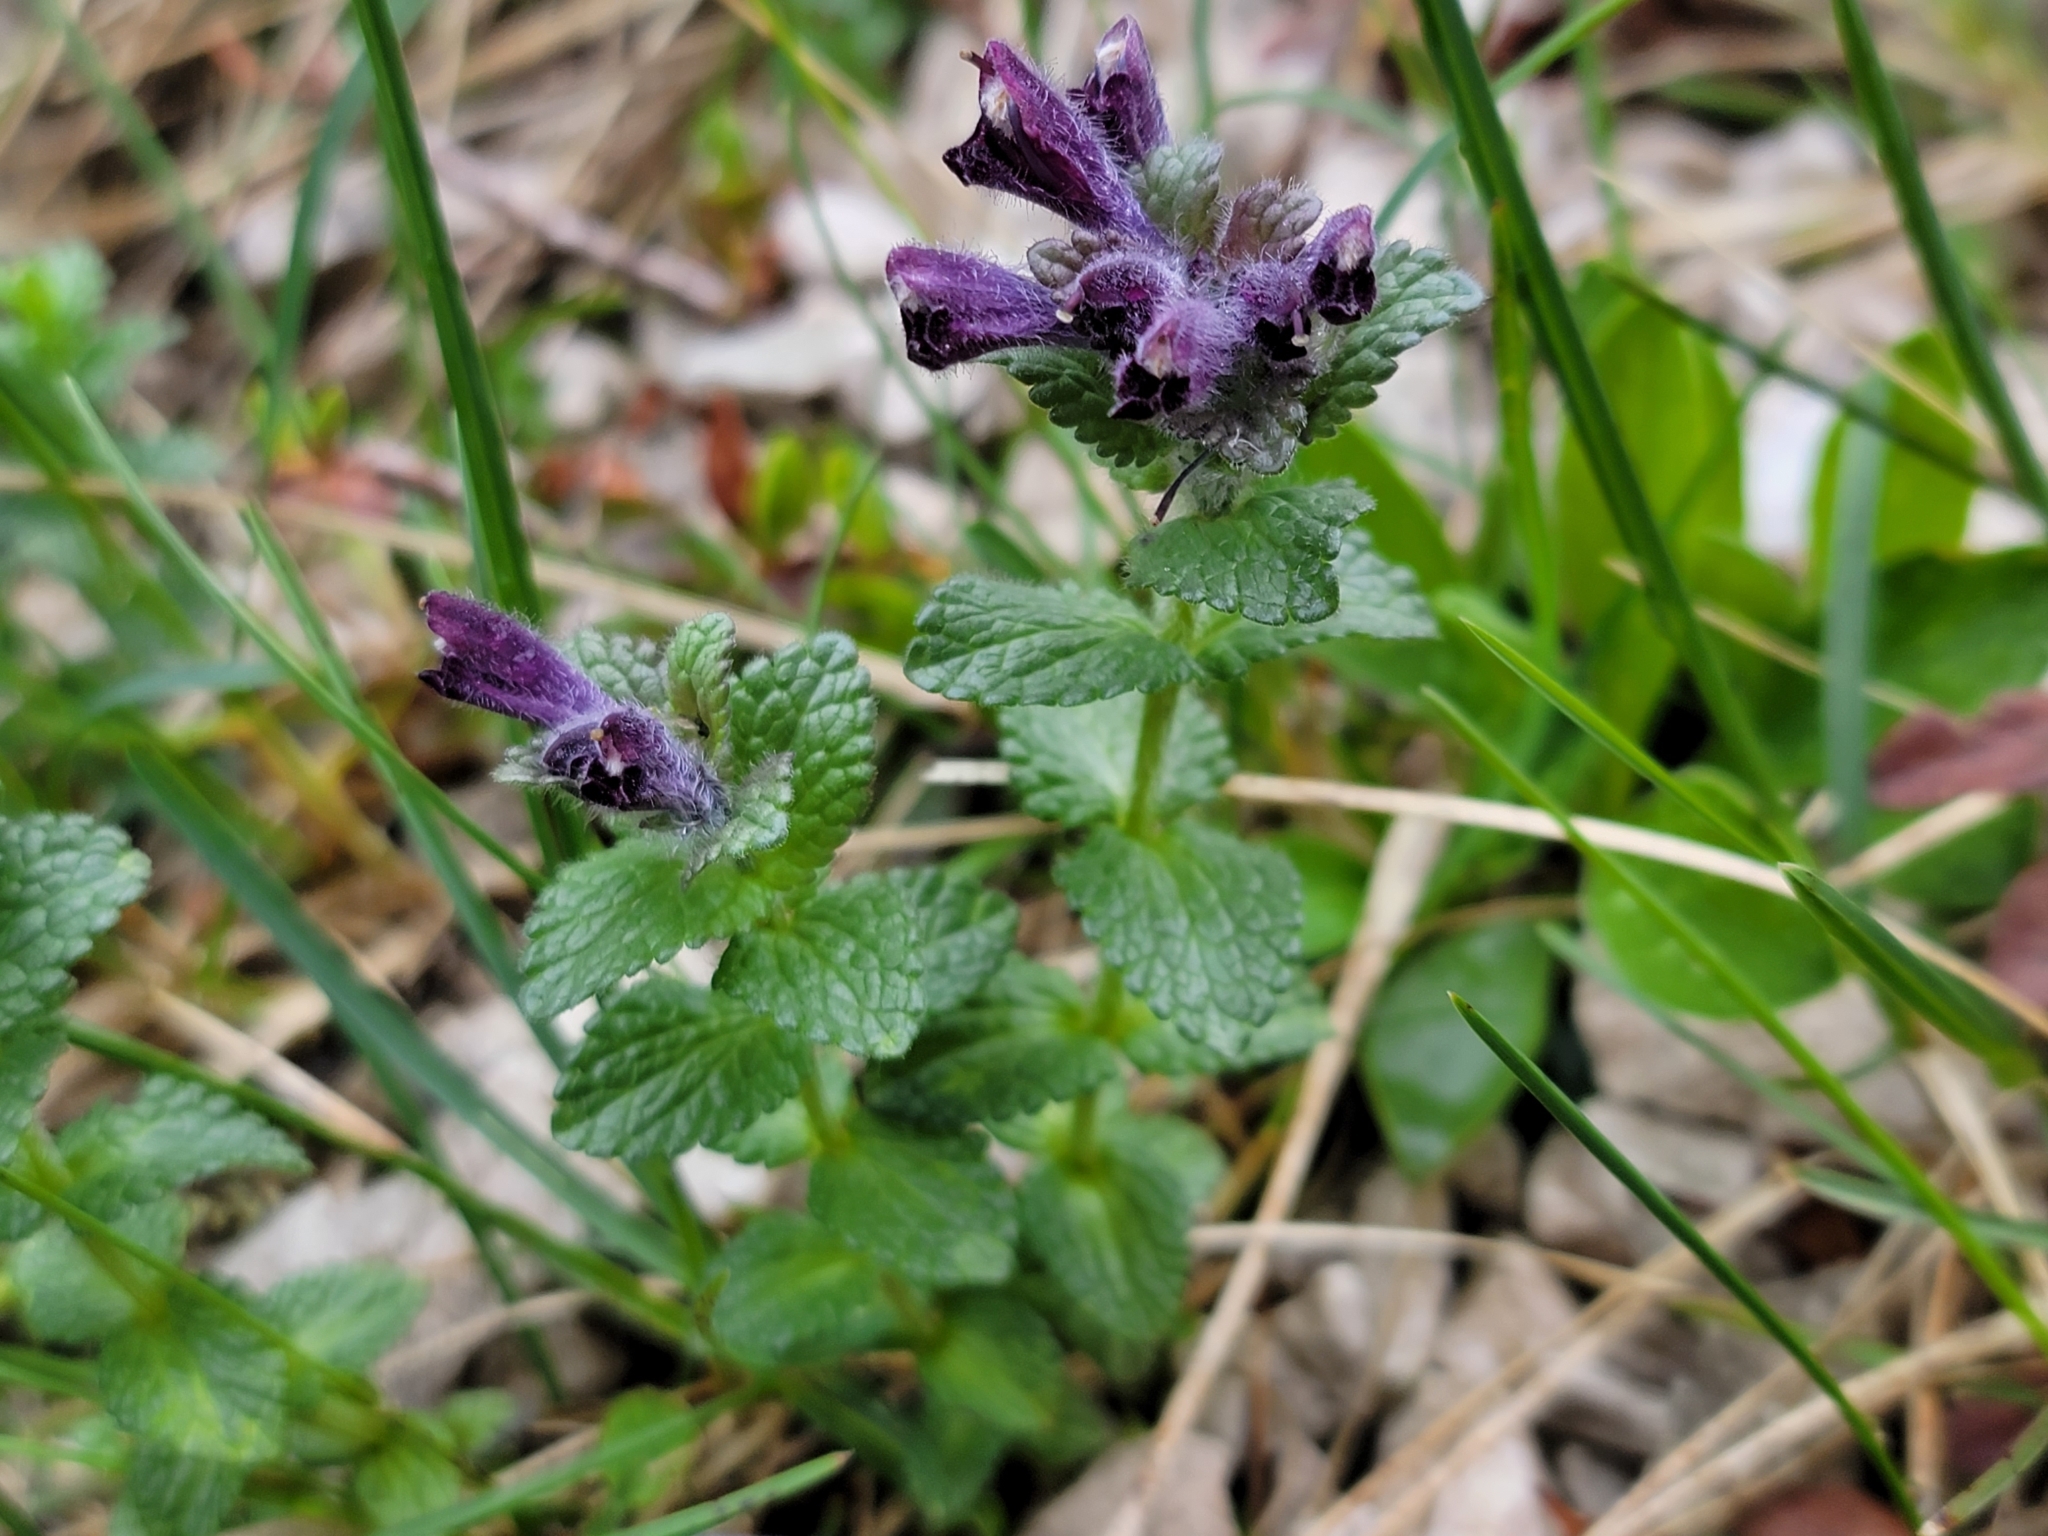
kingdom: Plantae
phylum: Tracheophyta
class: Magnoliopsida
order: Lamiales
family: Orobanchaceae
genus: Bartsia
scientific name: Bartsia alpina
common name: Alpine bartsia
